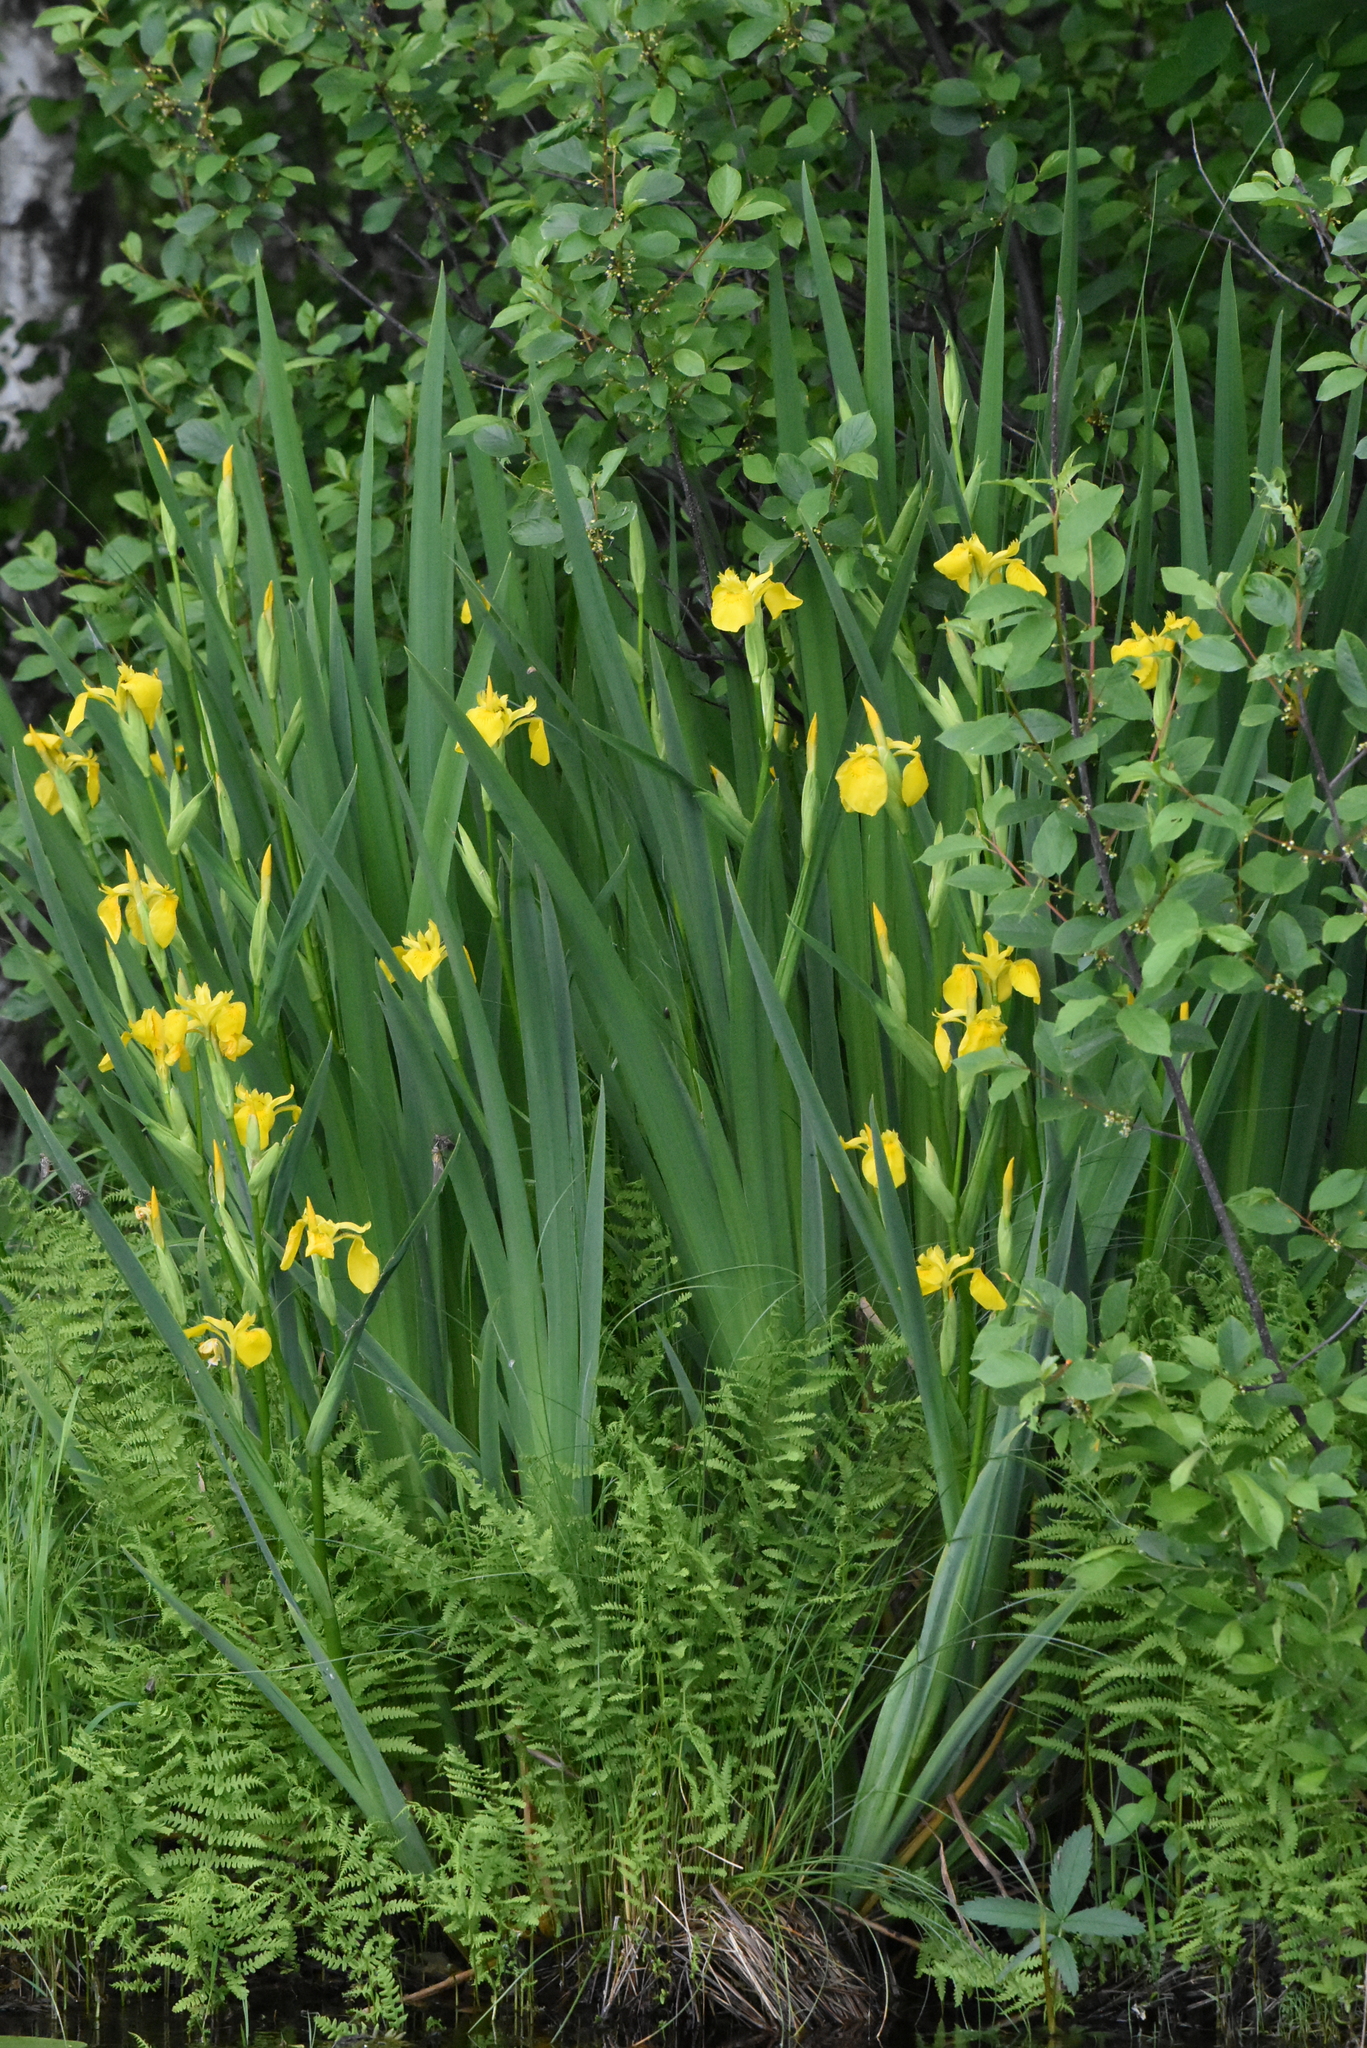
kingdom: Plantae
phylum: Tracheophyta
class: Liliopsida
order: Asparagales
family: Iridaceae
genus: Iris
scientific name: Iris pseudacorus
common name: Yellow flag
